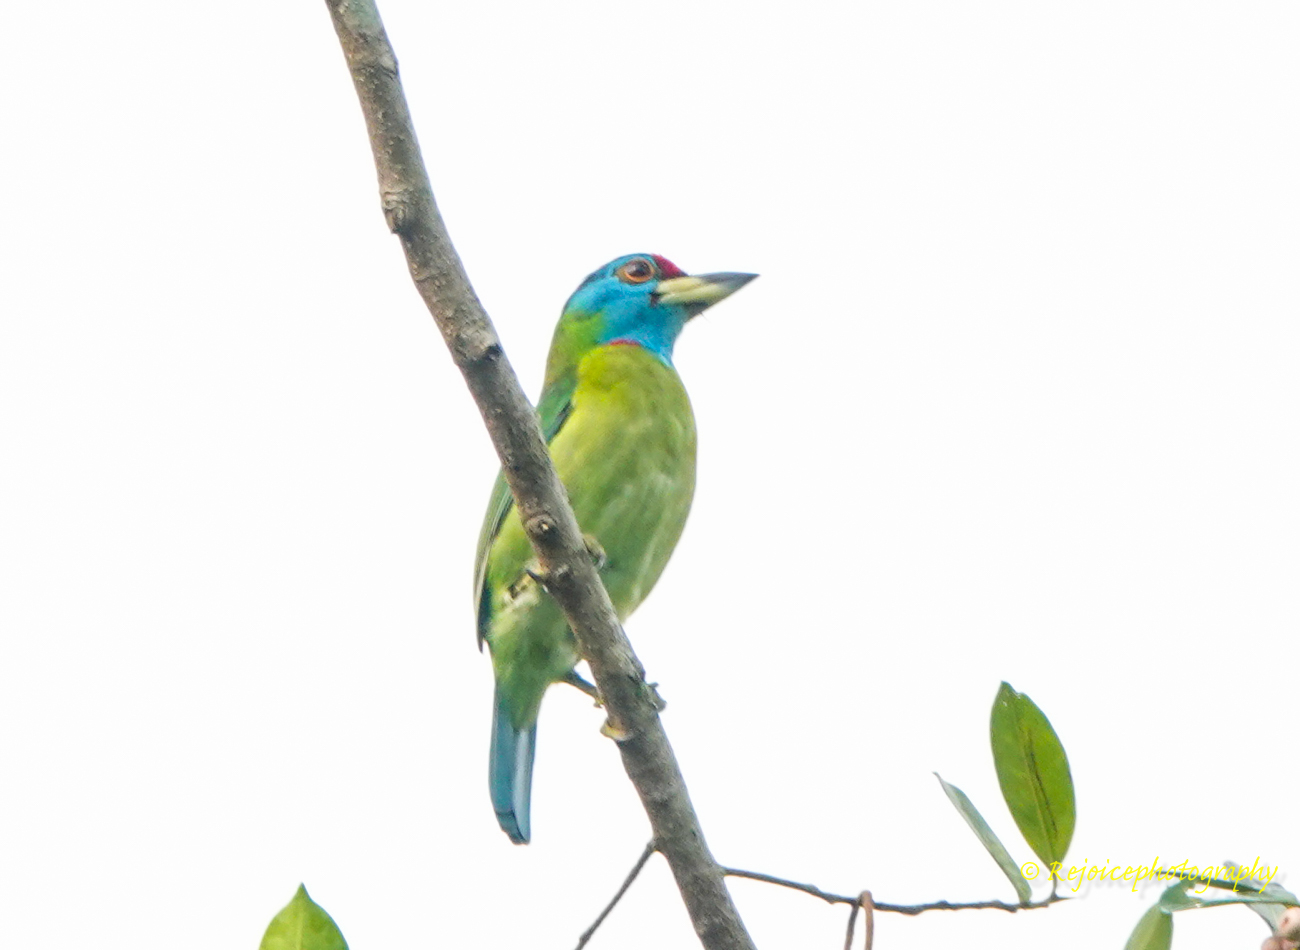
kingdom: Animalia
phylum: Chordata
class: Aves
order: Piciformes
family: Megalaimidae
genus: Psilopogon
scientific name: Psilopogon asiaticus
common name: Blue-throated barbet
